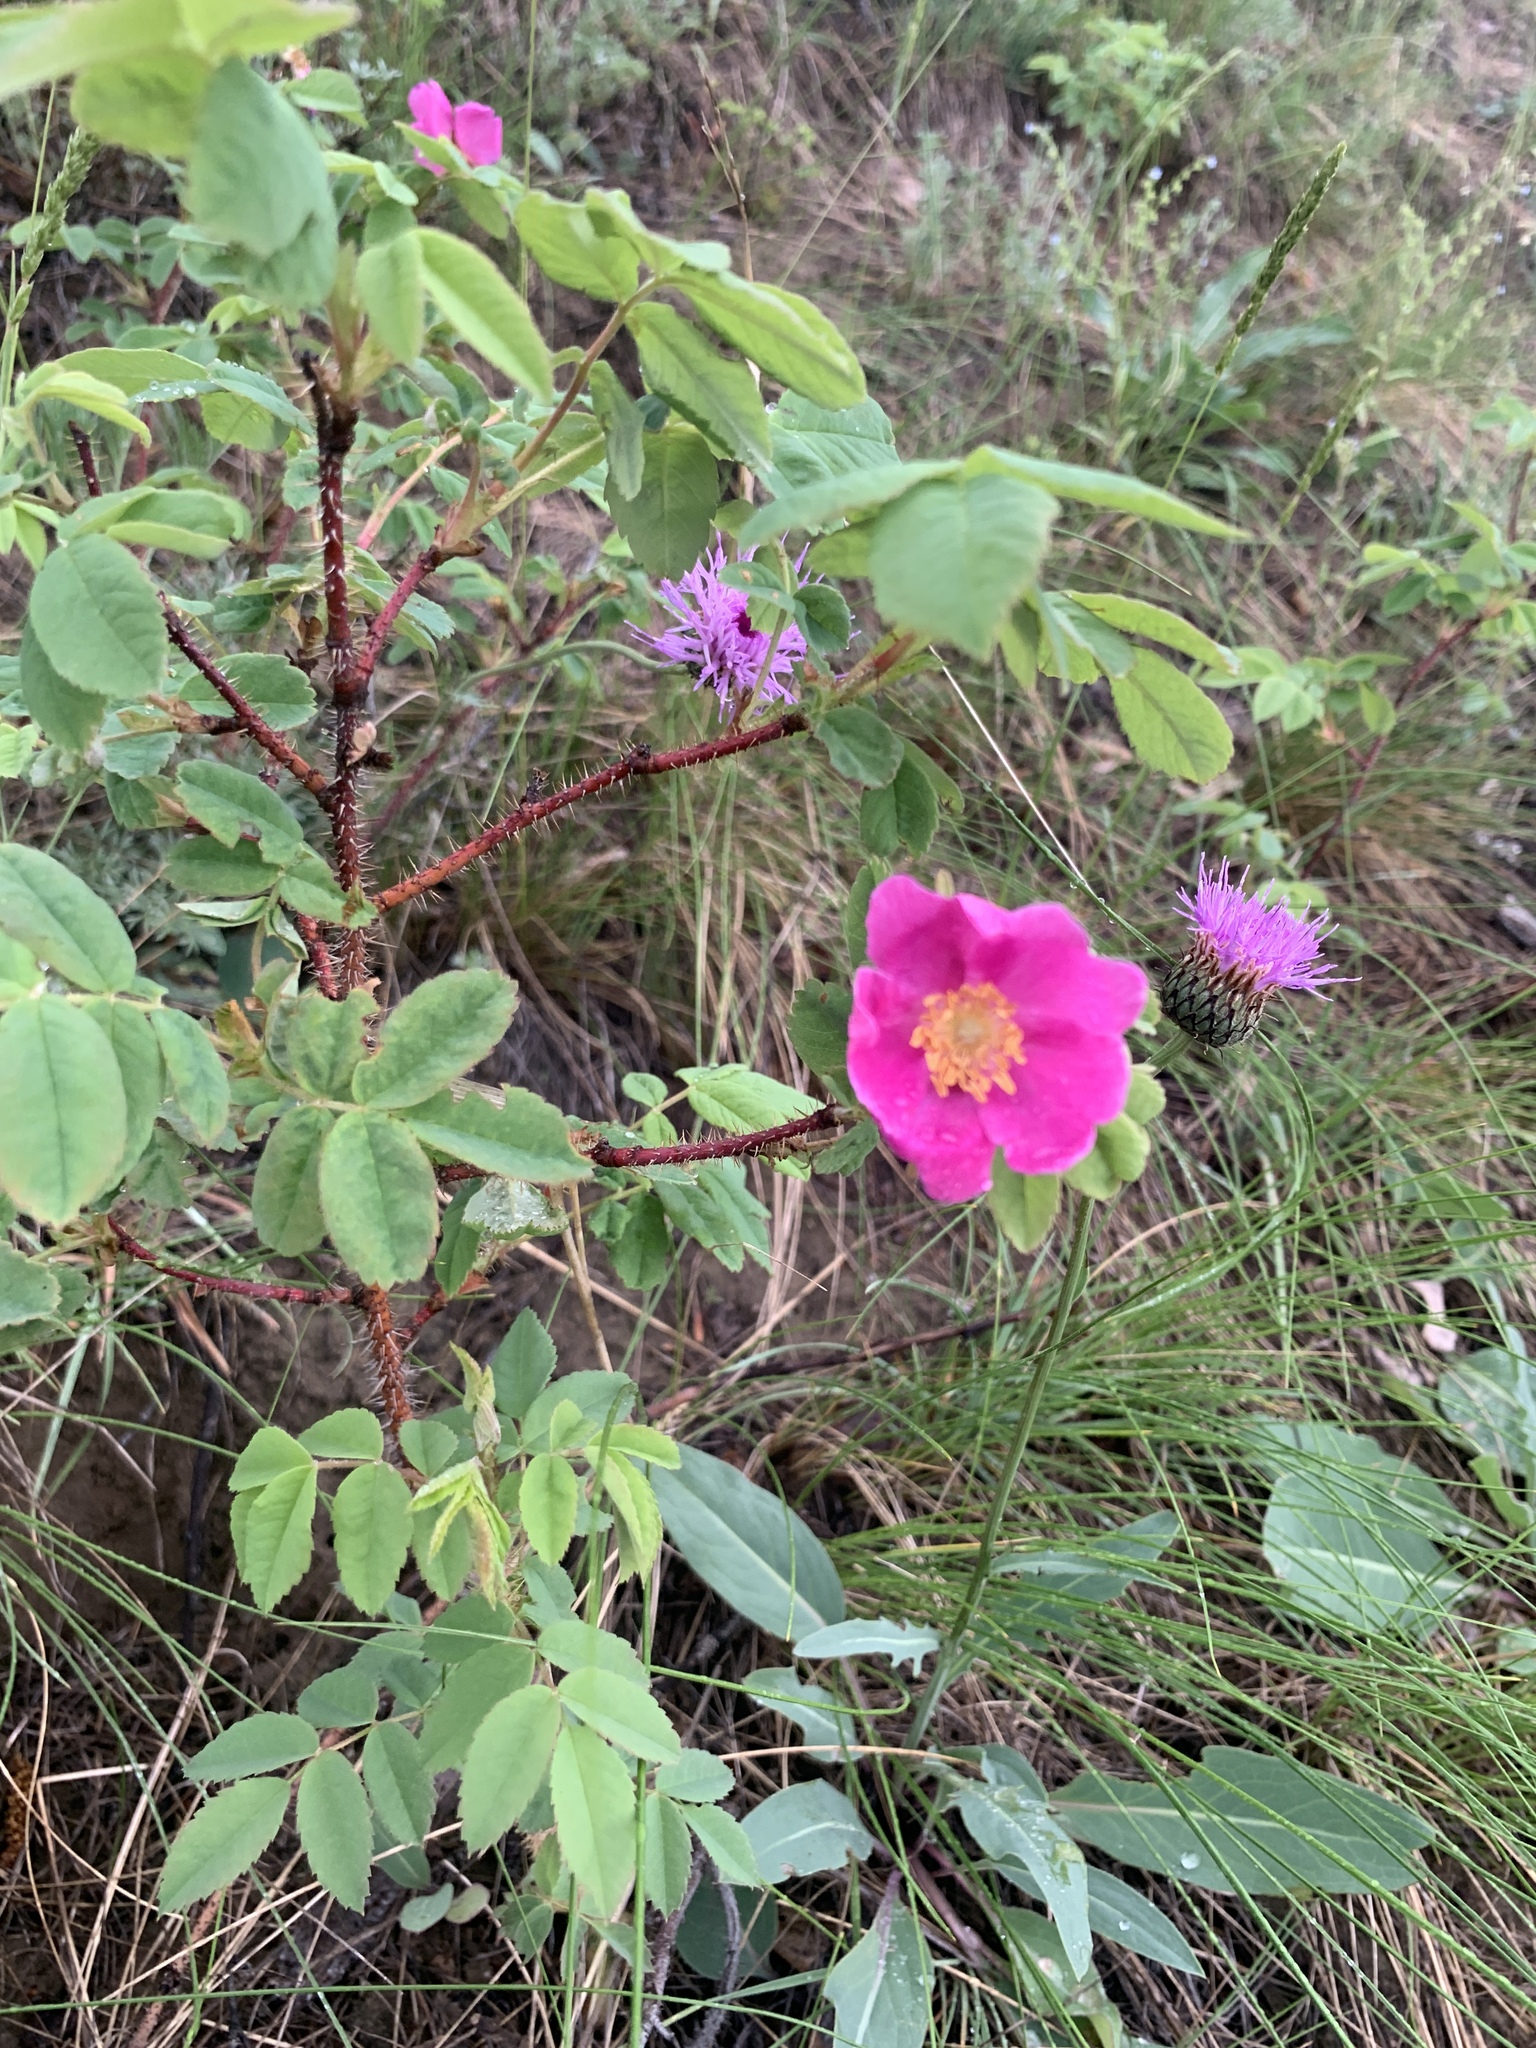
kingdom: Plantae
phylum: Tracheophyta
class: Magnoliopsida
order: Rosales
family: Rosaceae
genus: Rosa
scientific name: Rosa acicularis
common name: Prickly rose
